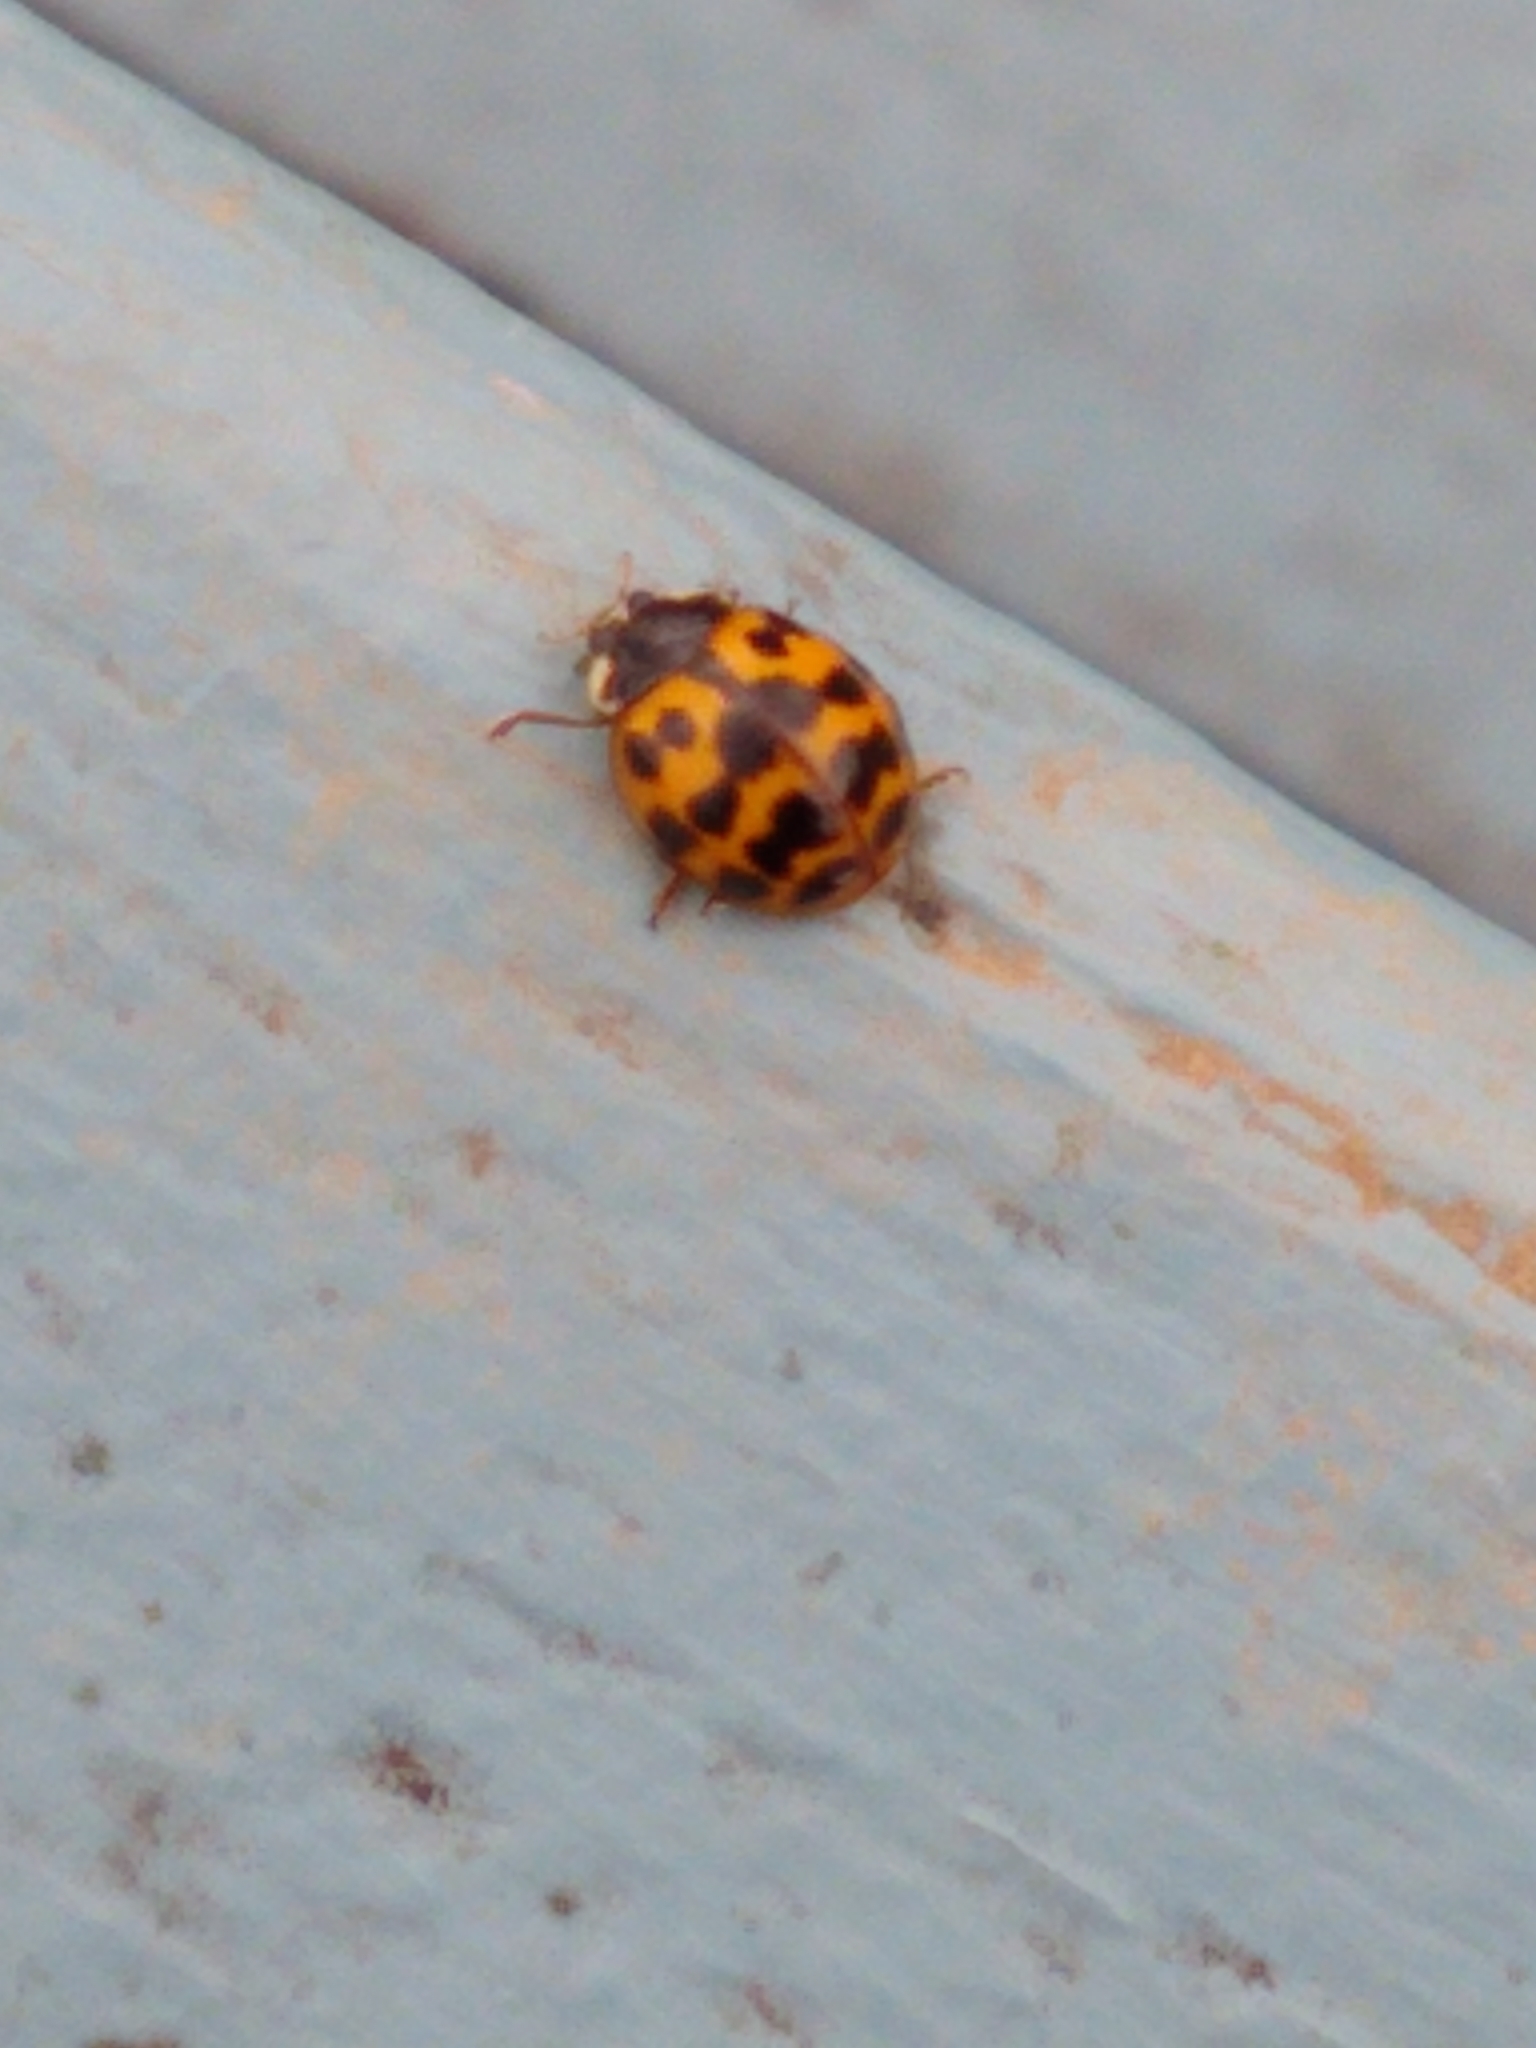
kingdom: Animalia
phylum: Arthropoda
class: Insecta
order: Coleoptera
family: Coccinellidae
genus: Harmonia
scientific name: Harmonia axyridis
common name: Harlequin ladybird
